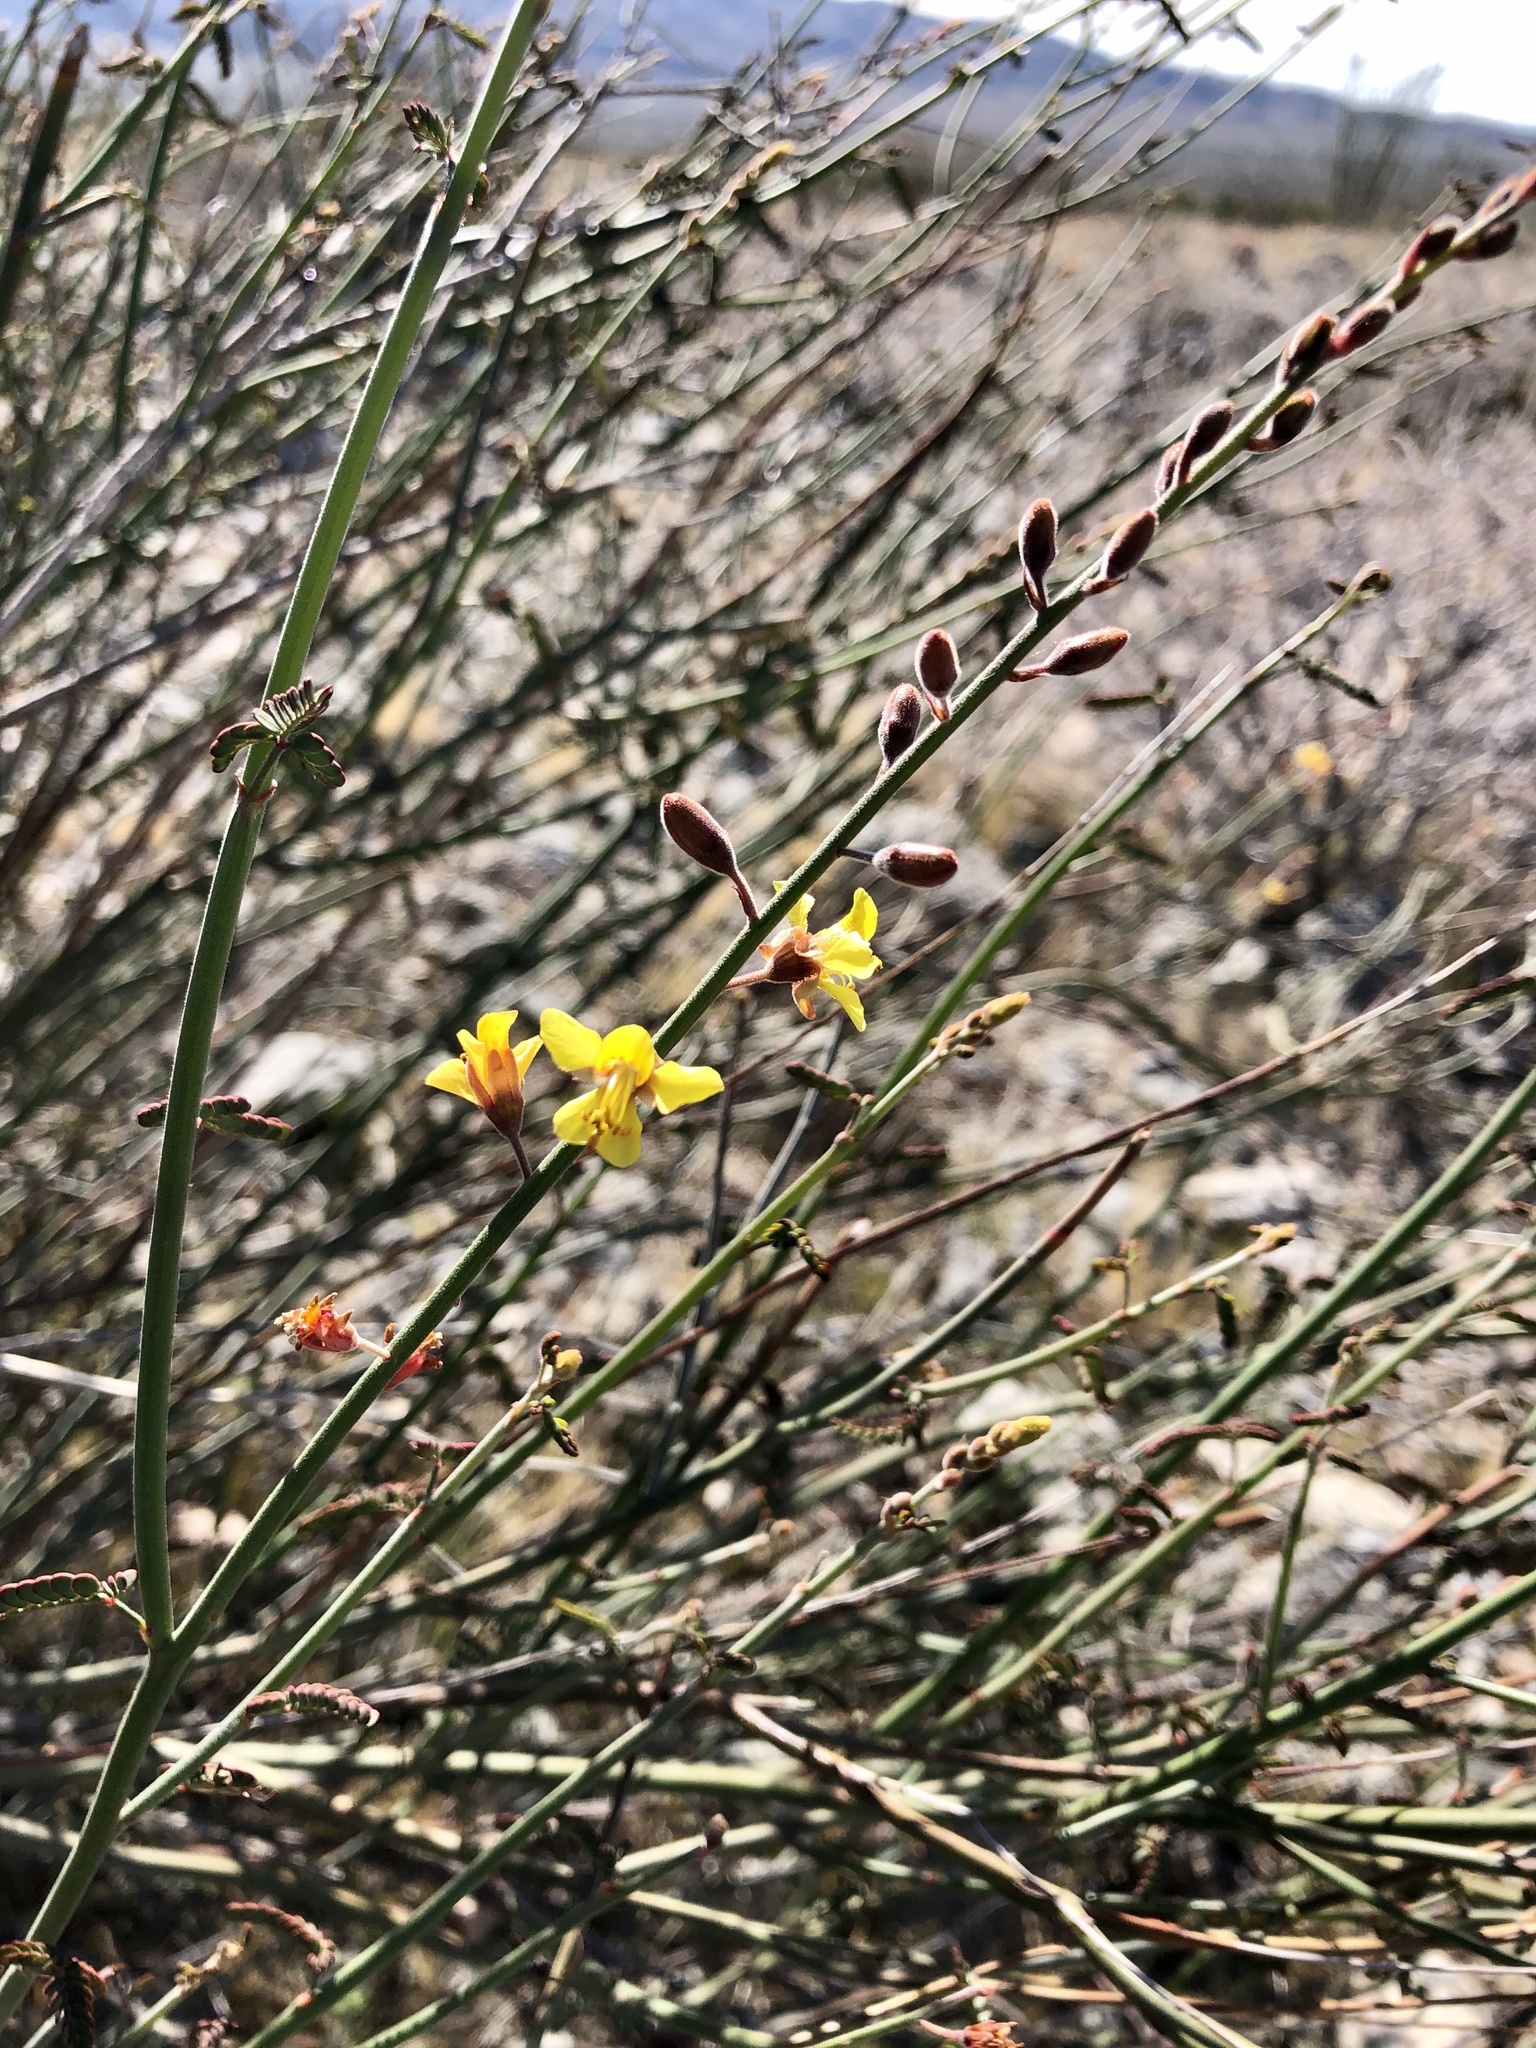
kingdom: Plantae
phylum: Tracheophyta
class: Magnoliopsida
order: Fabales
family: Fabaceae
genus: Hoffmannseggia
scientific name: Hoffmannseggia microphylla
